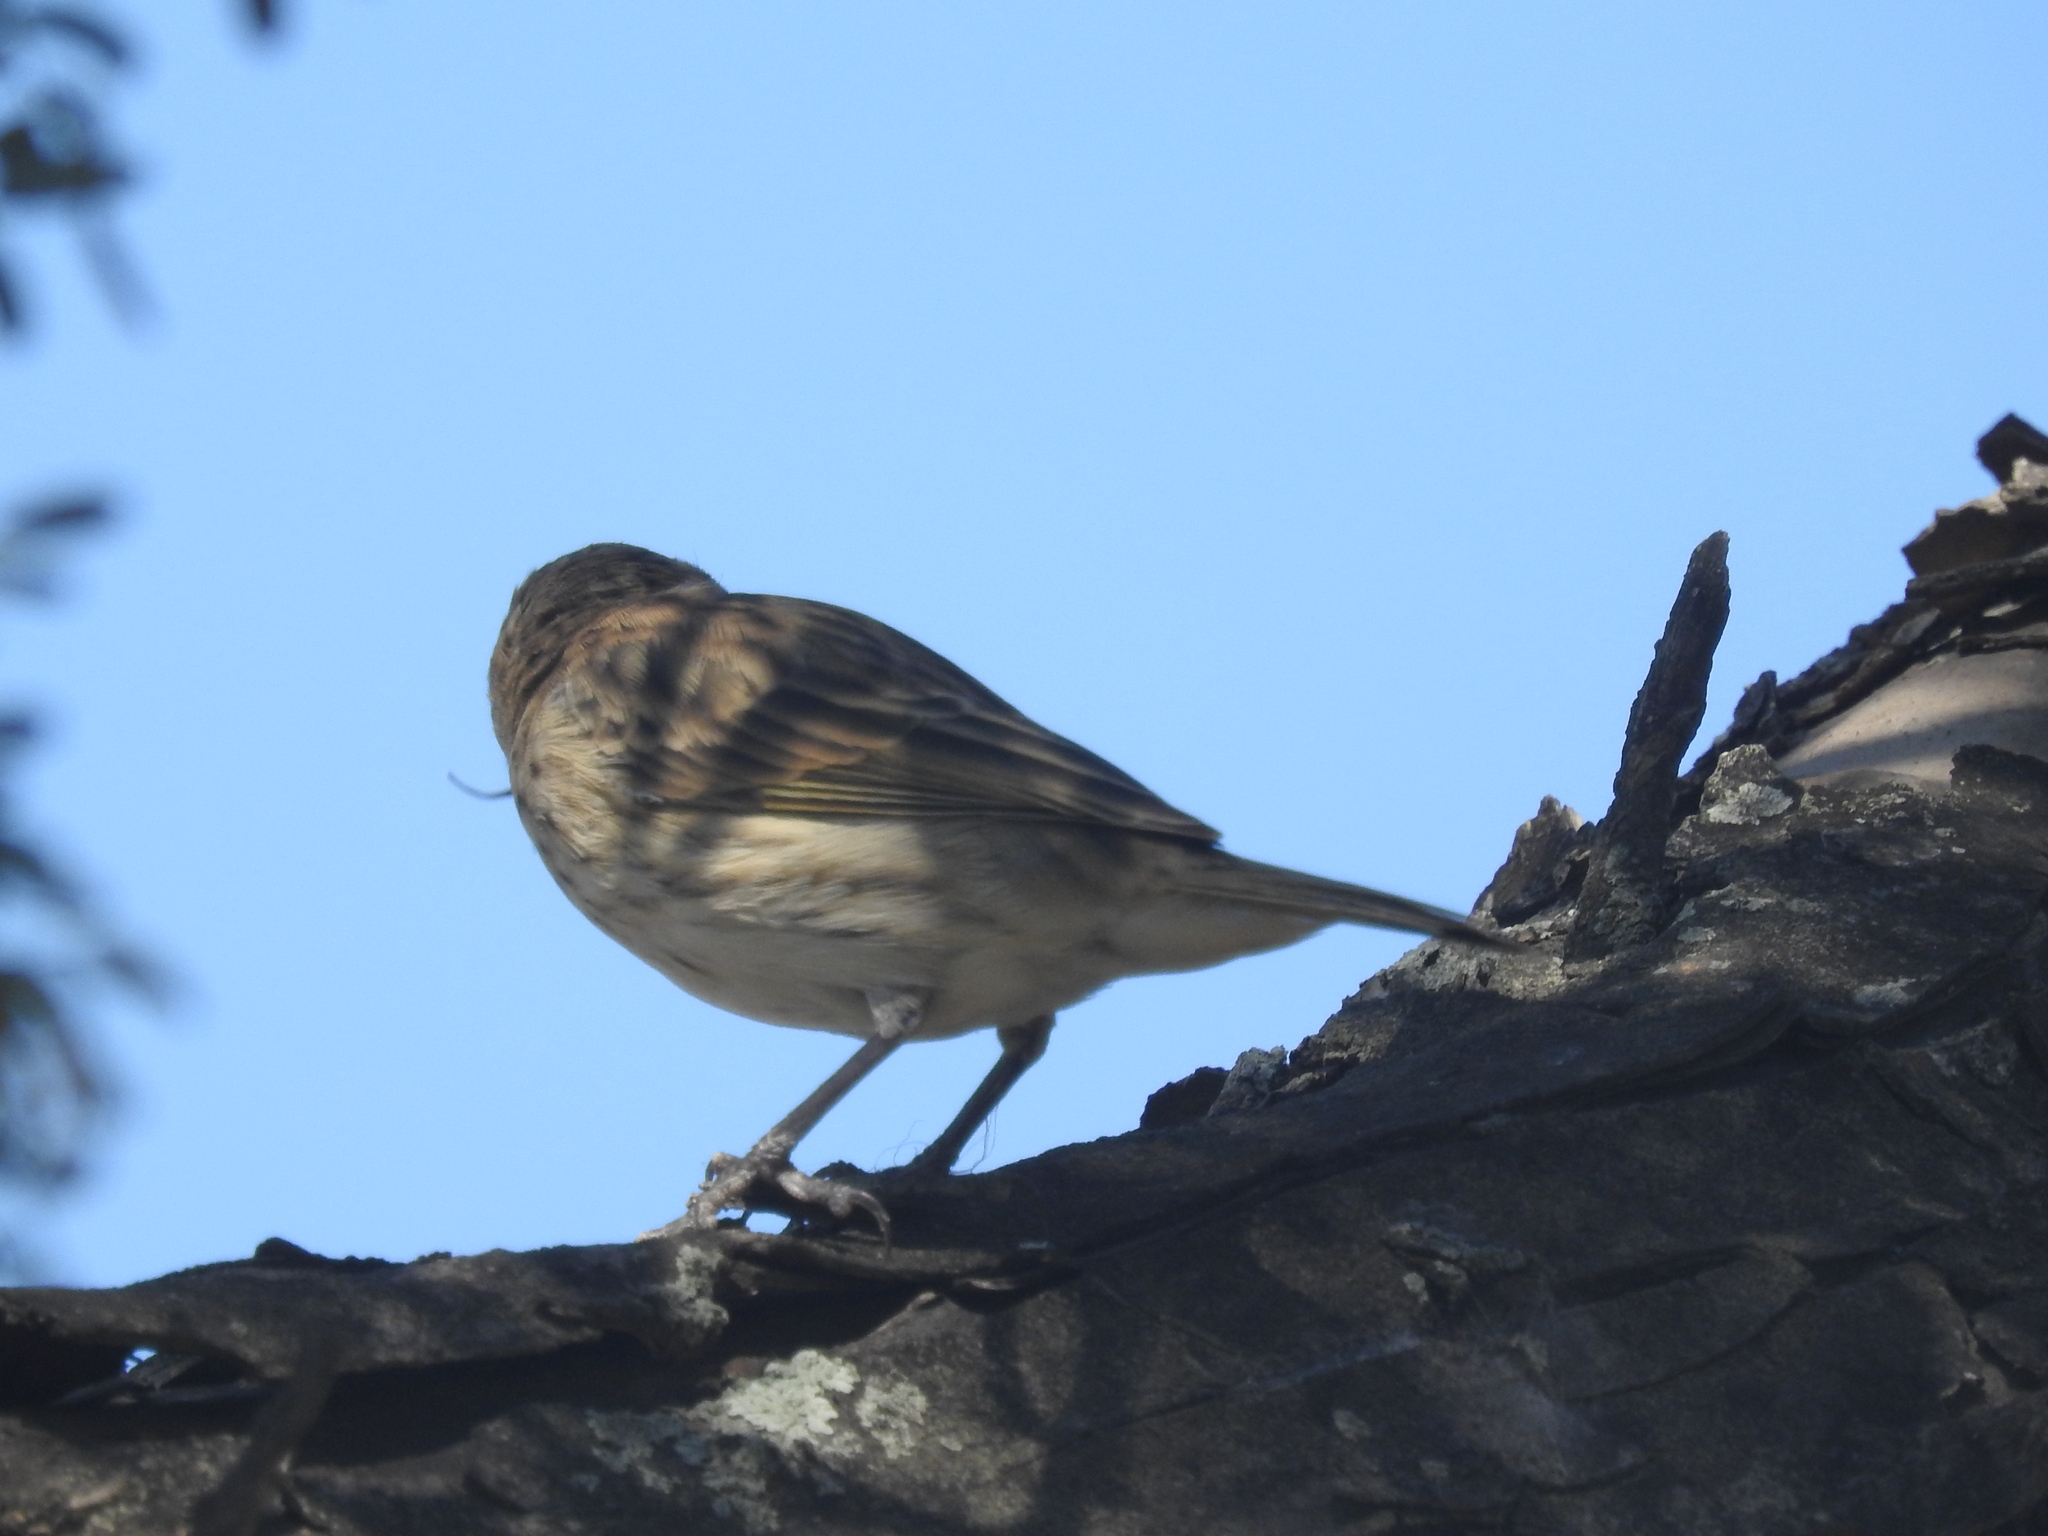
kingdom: Animalia
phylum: Chordata
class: Aves
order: Passeriformes
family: Thraupidae
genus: Sicalis
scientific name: Sicalis flaveola
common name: Saffron finch
